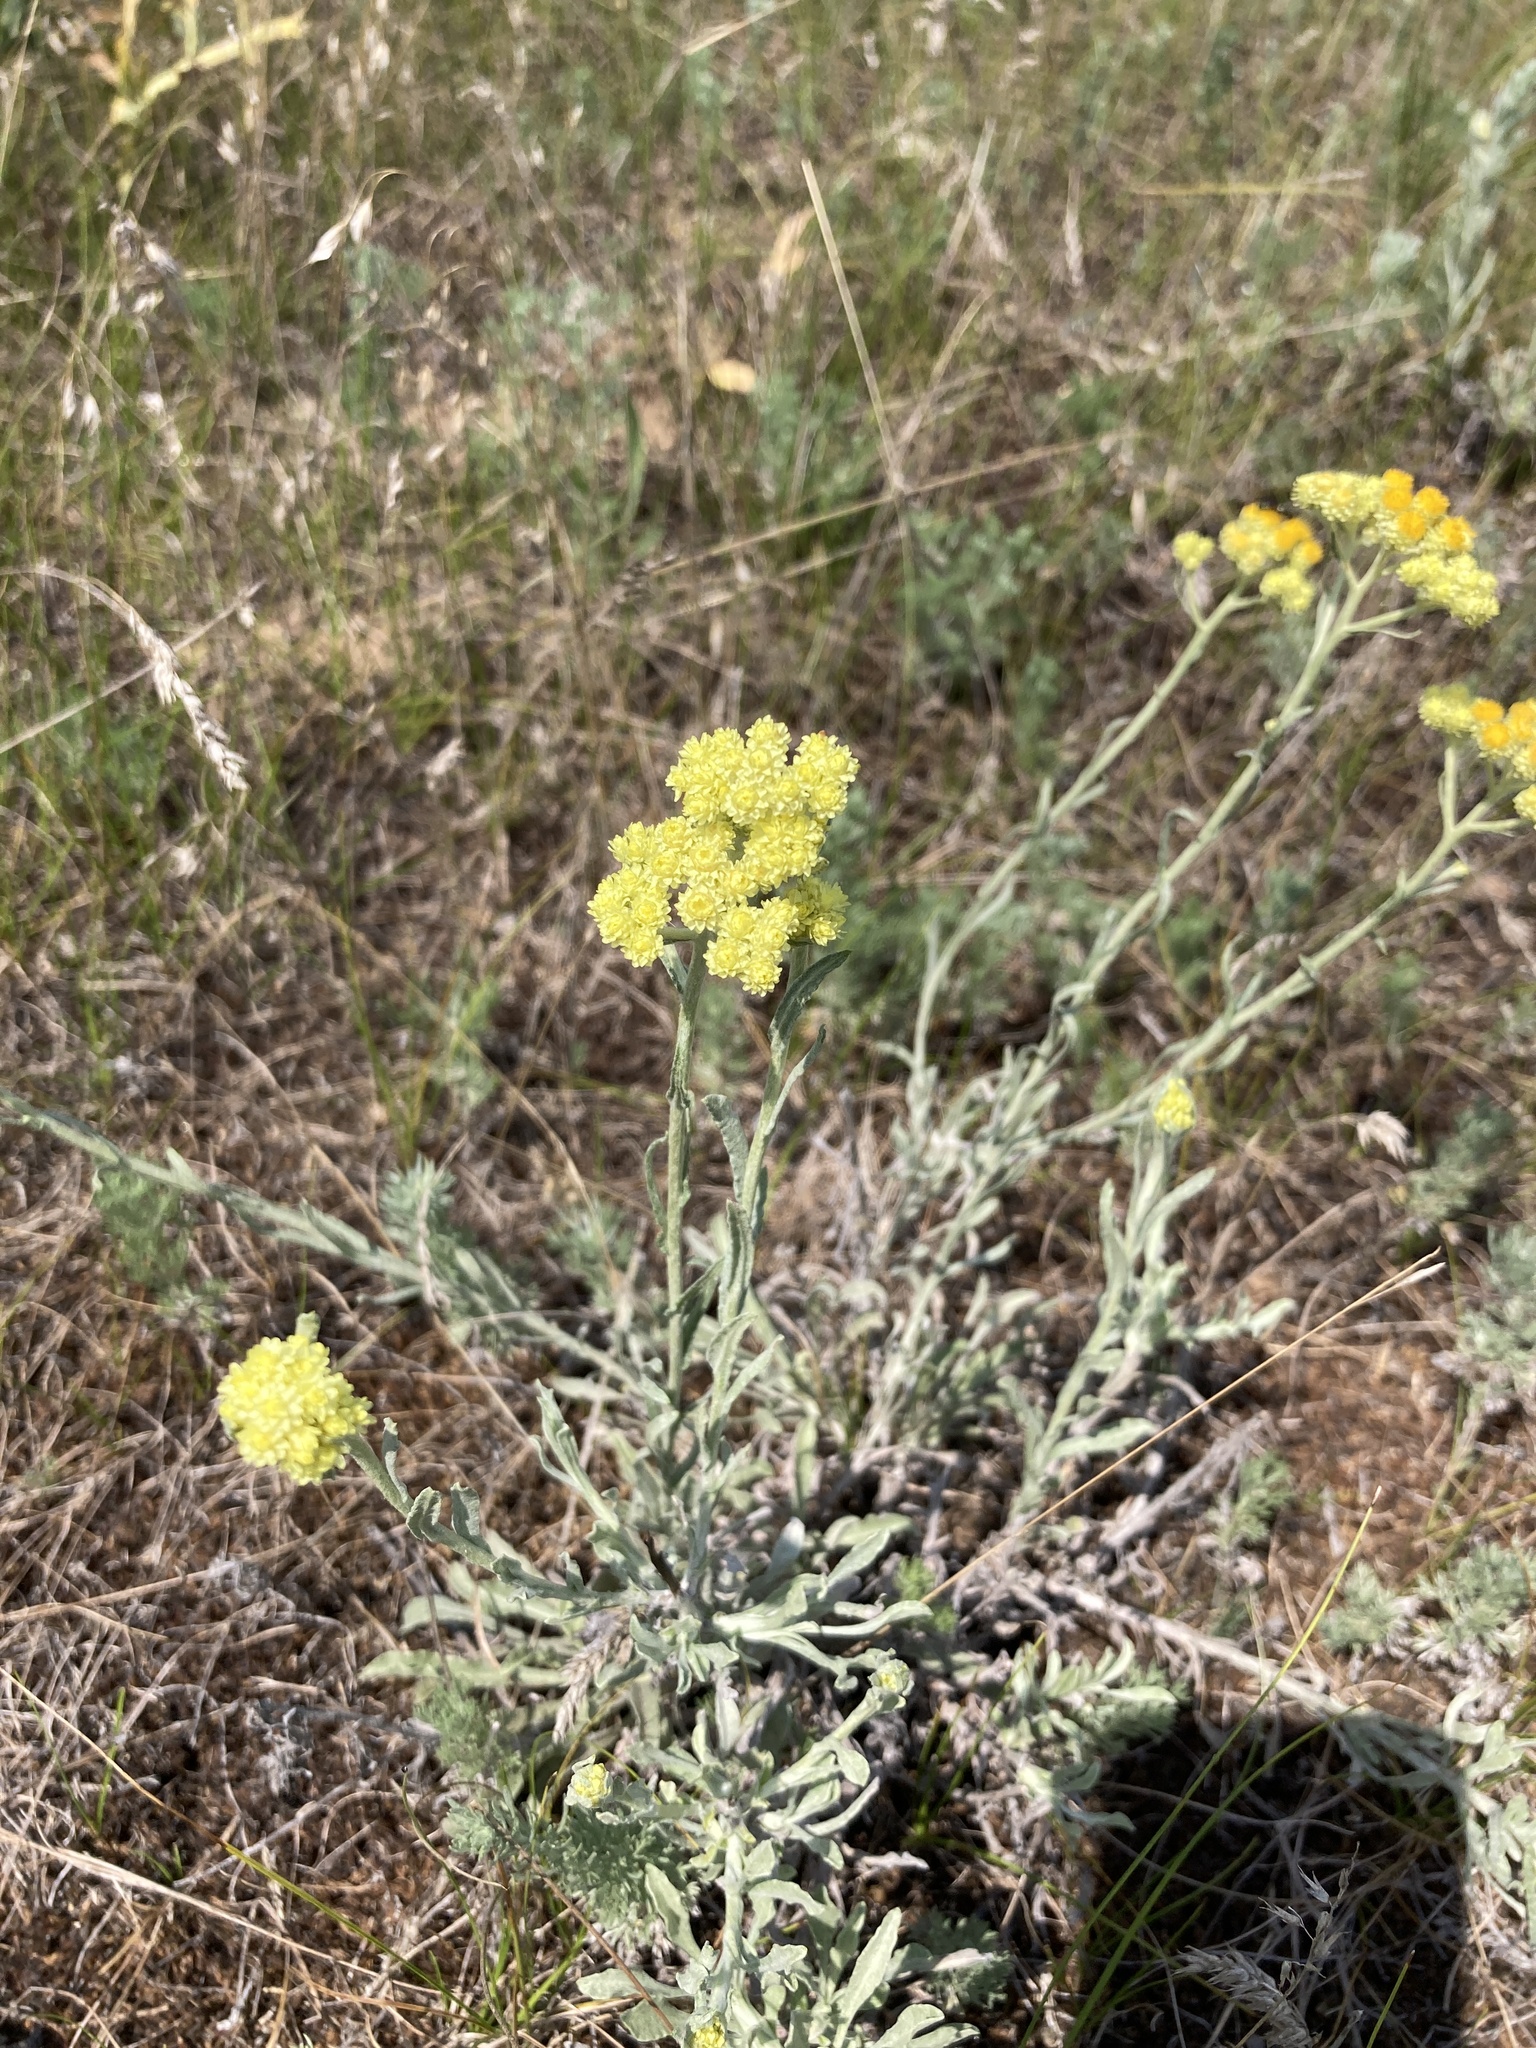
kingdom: Plantae
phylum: Tracheophyta
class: Magnoliopsida
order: Asterales
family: Asteraceae
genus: Helichrysum
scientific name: Helichrysum arenarium
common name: Strawflower
